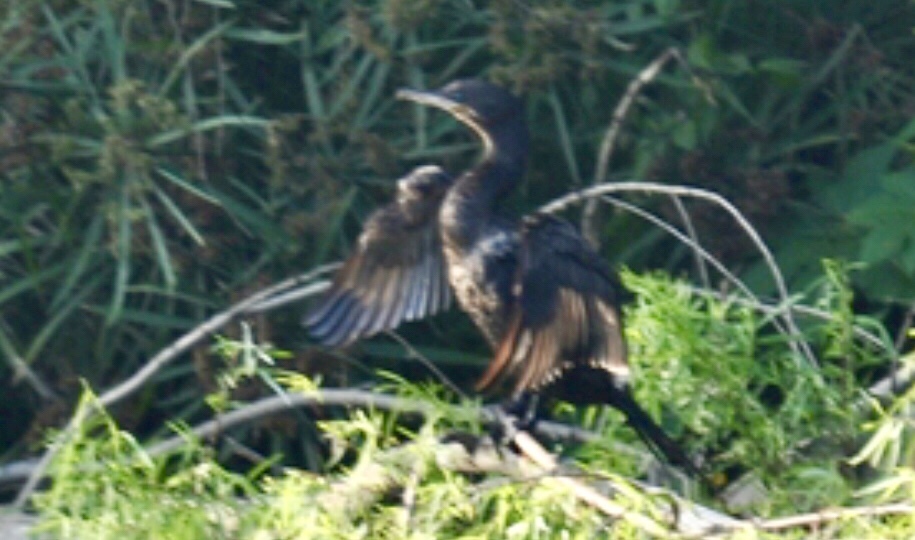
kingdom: Animalia
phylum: Chordata
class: Aves
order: Suliformes
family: Phalacrocoracidae
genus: Phalacrocorax
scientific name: Phalacrocorax brasilianus
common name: Neotropic cormorant
